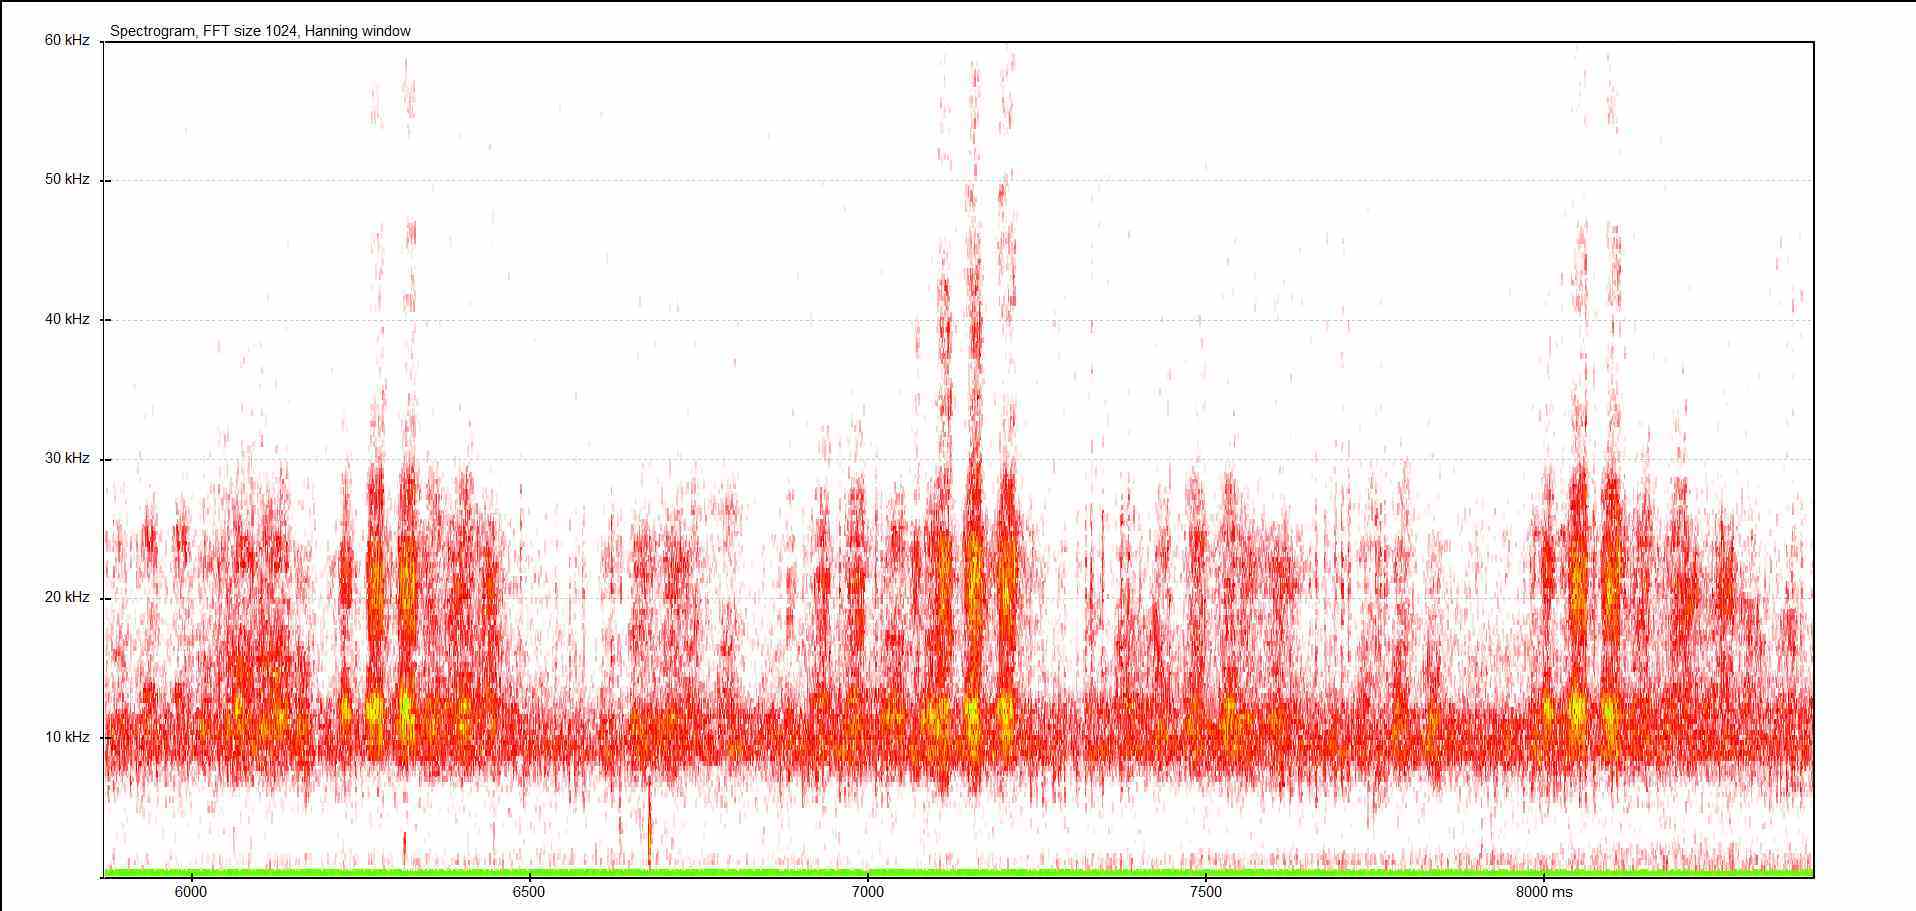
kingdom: Animalia
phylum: Arthropoda
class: Insecta
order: Orthoptera
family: Tettigoniidae
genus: Pholidoptera
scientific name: Pholidoptera griseoaptera
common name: Dark bush-cricket
